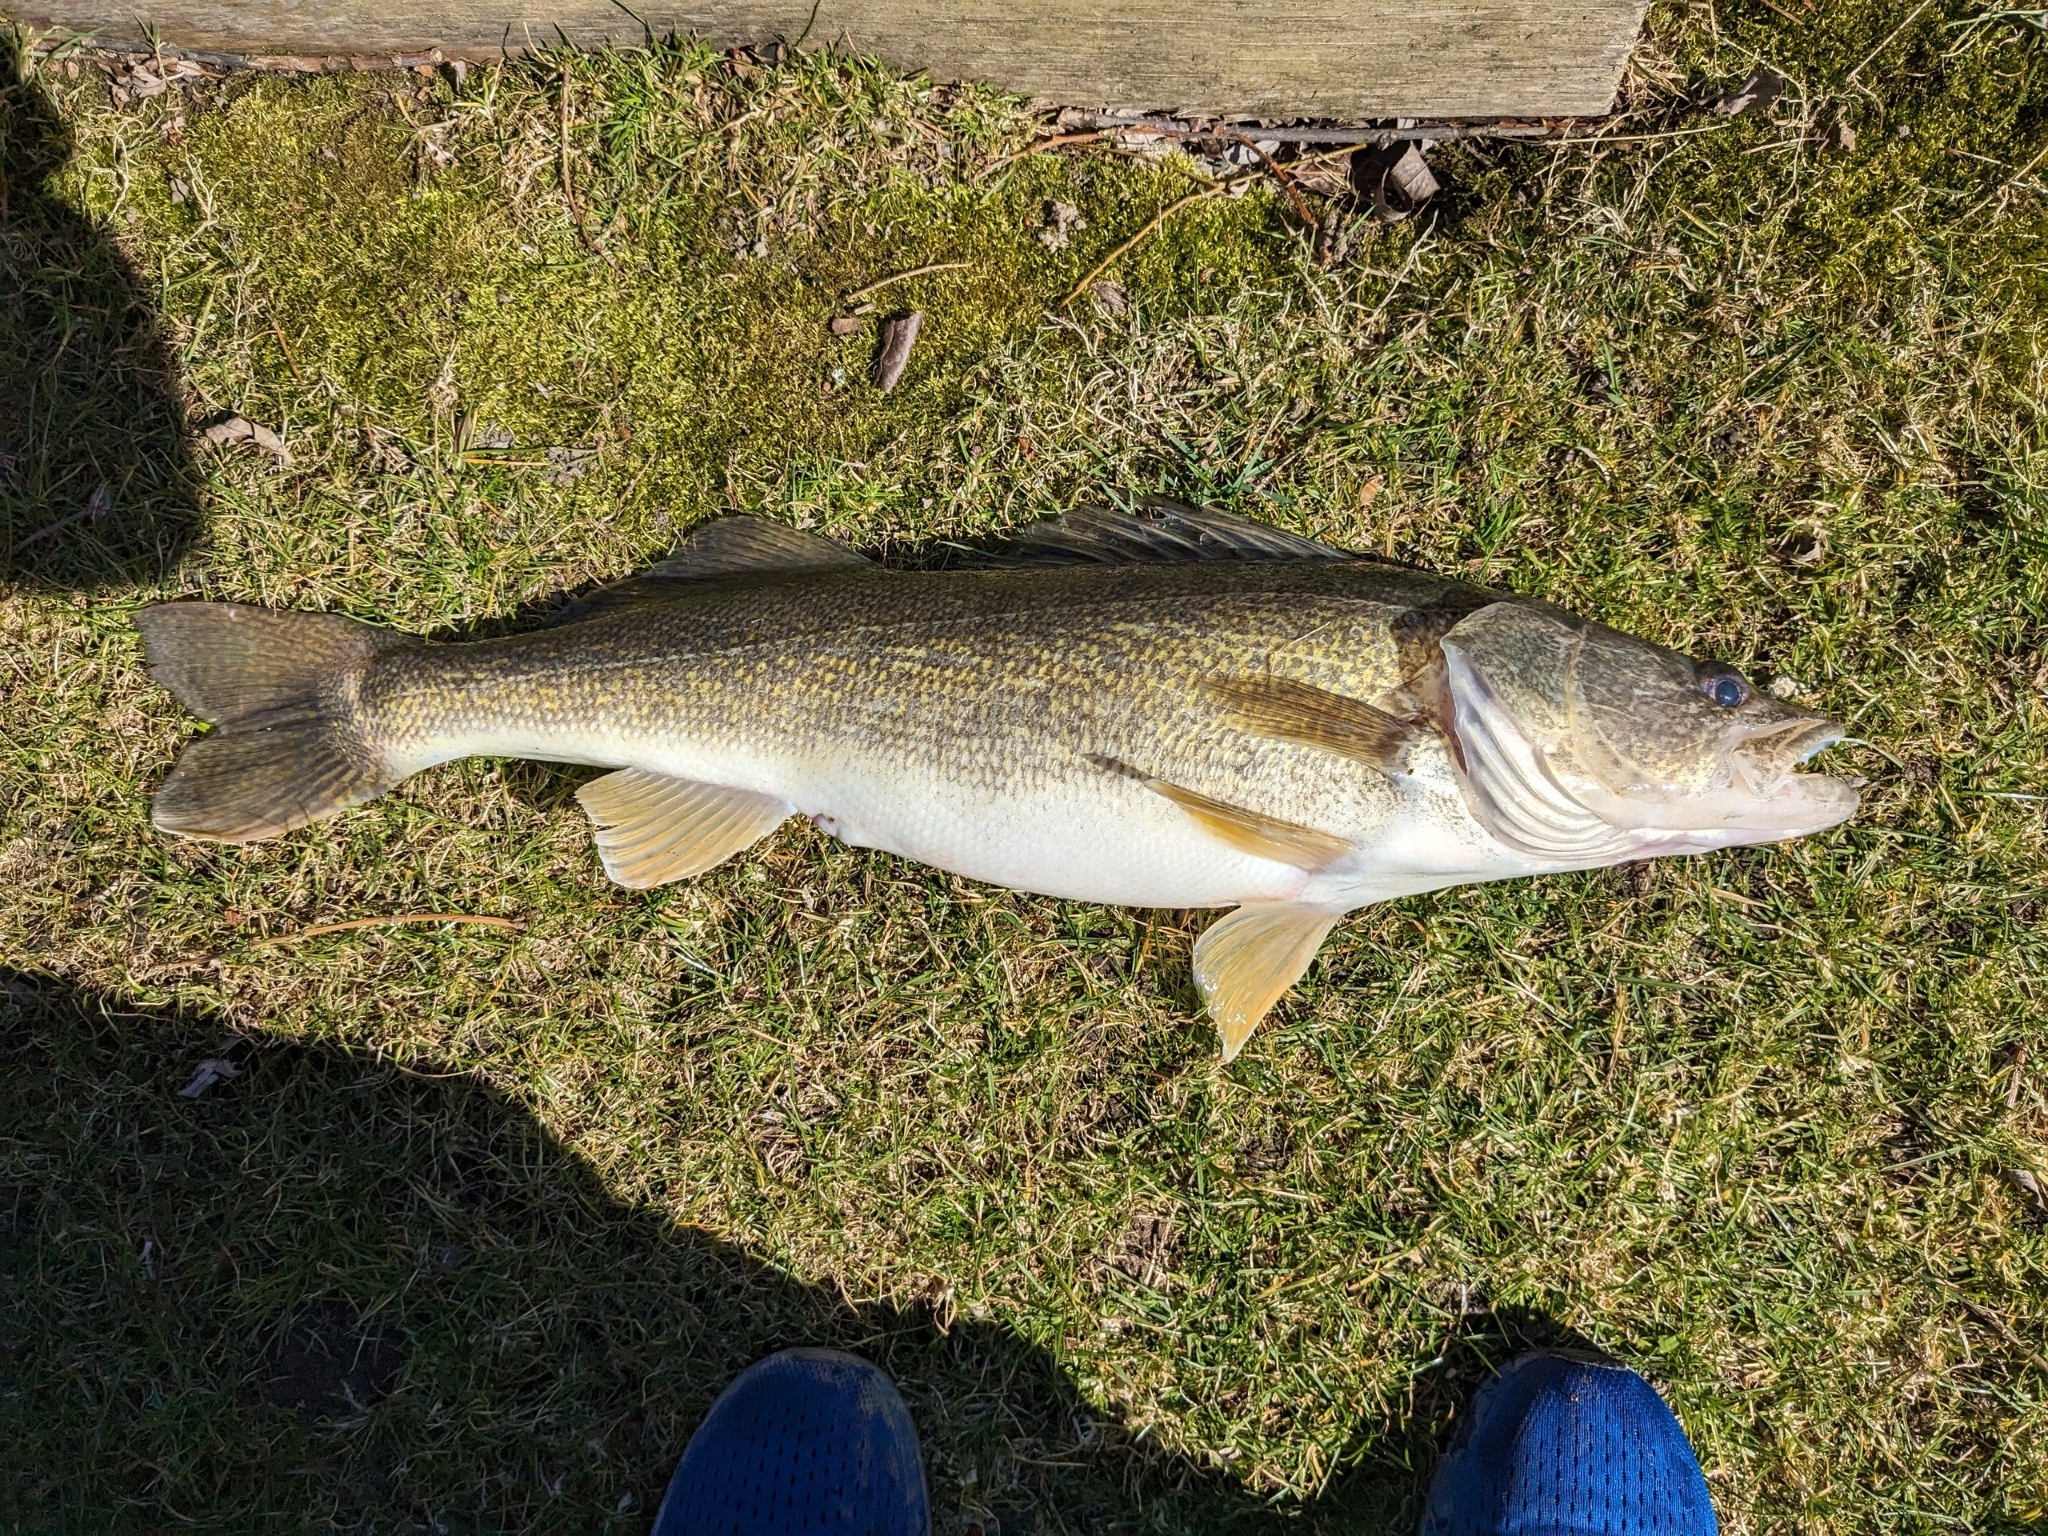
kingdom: Animalia
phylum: Chordata
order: Perciformes
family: Percidae
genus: Sander
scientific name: Sander vitreus
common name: Walleye
